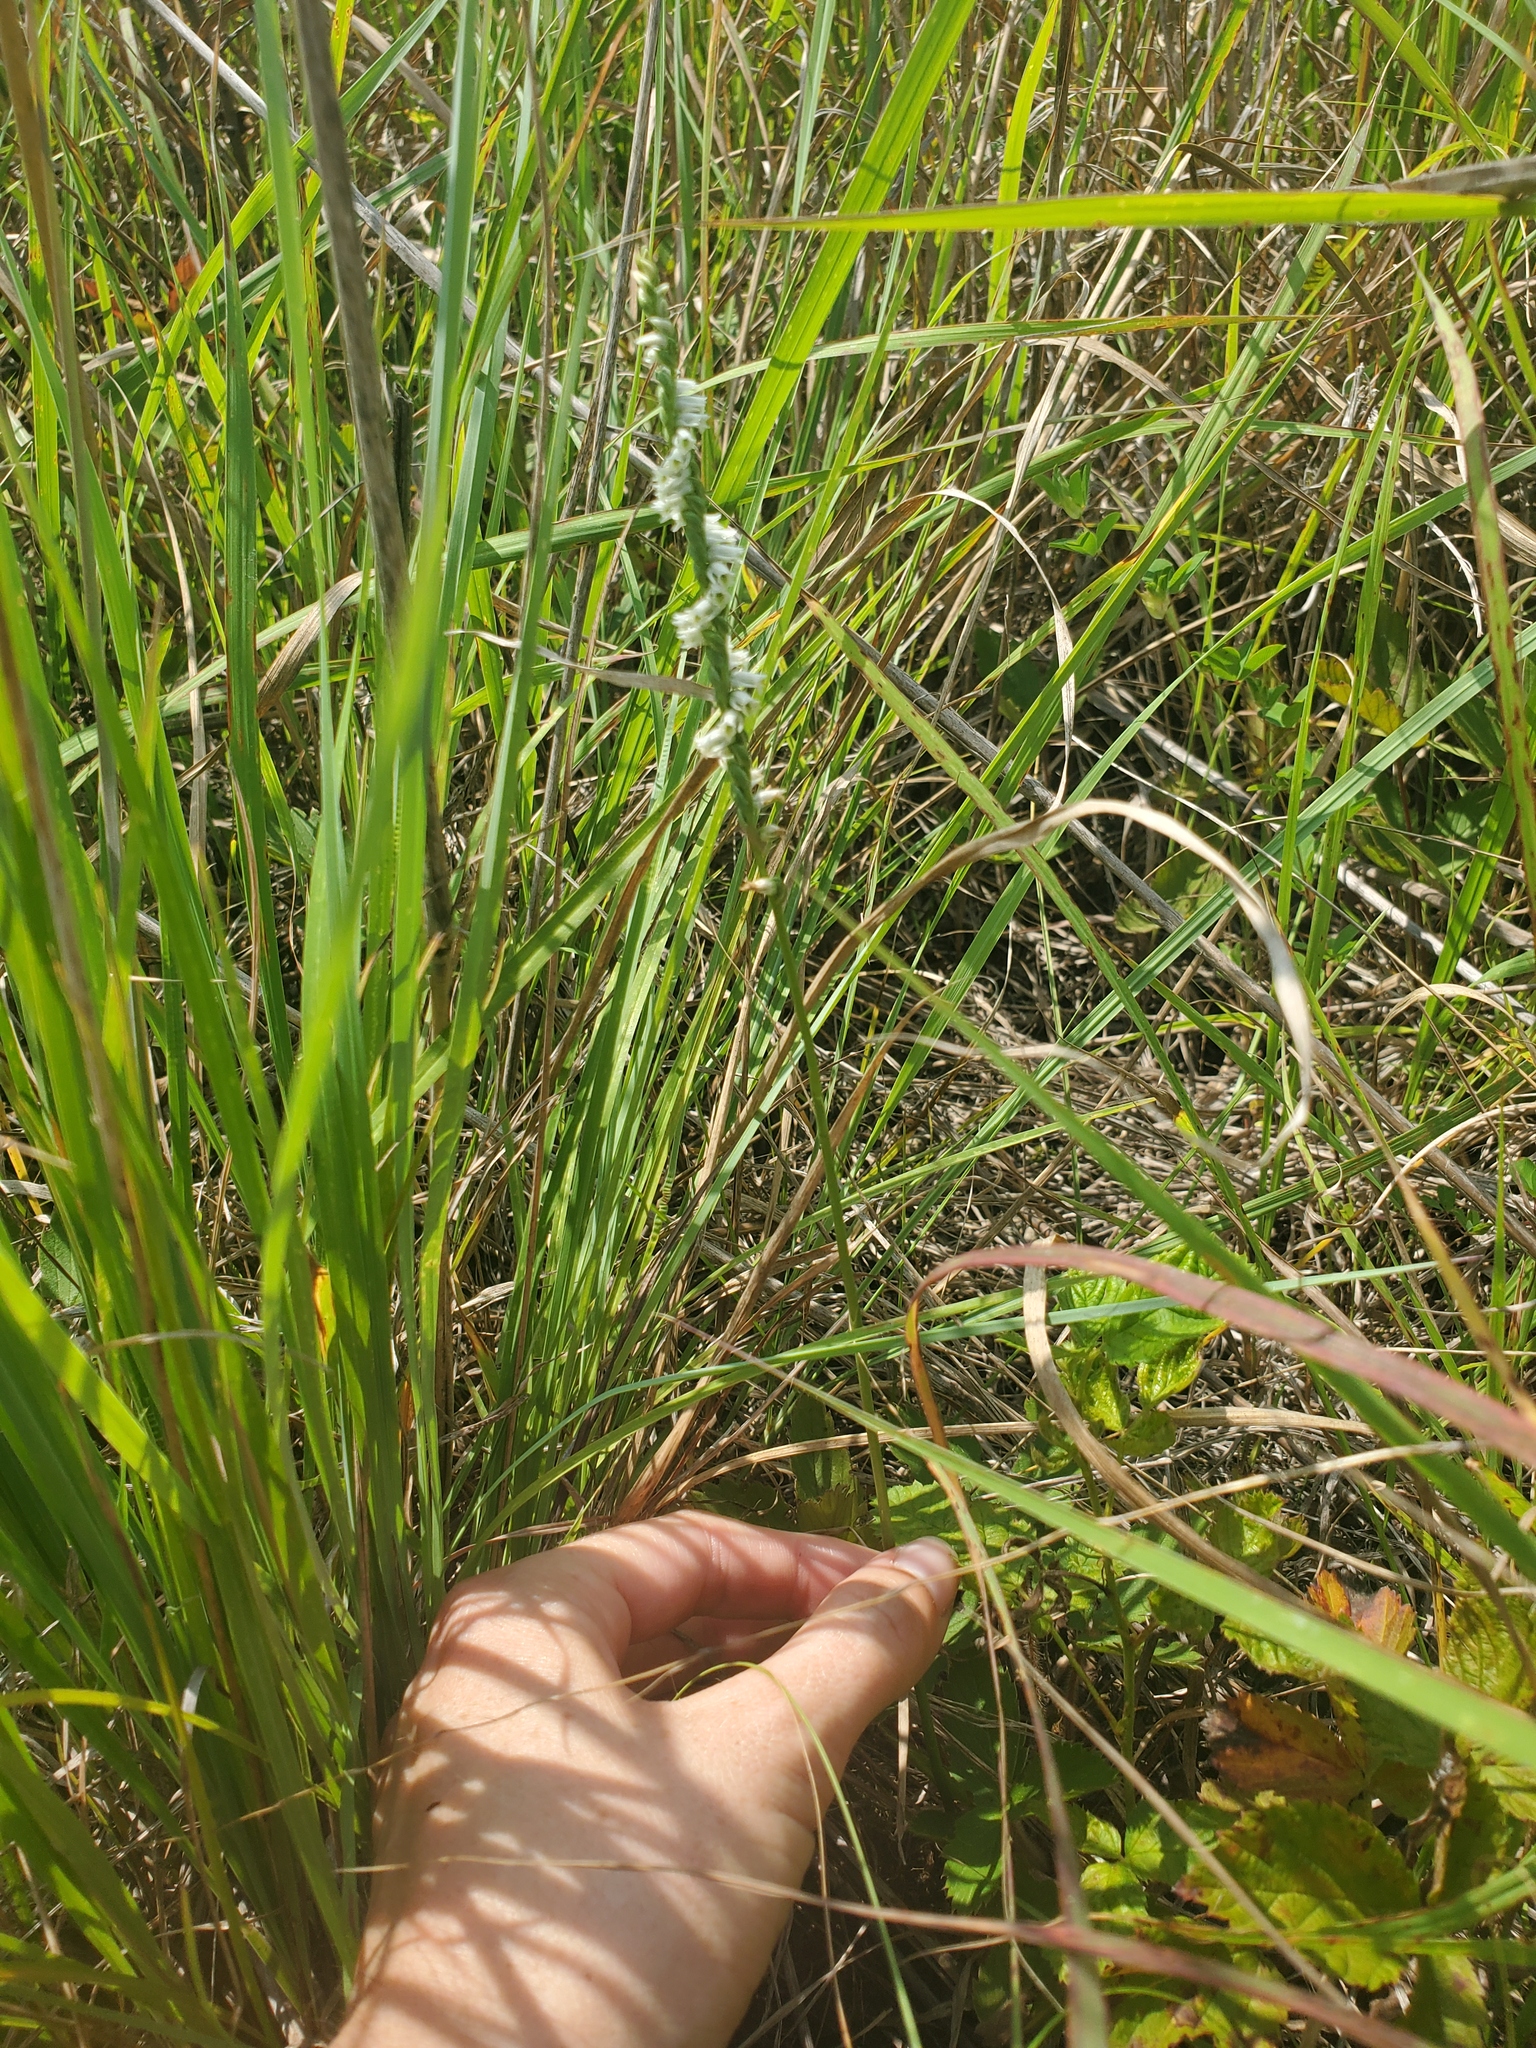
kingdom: Plantae
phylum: Tracheophyta
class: Liliopsida
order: Asparagales
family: Orchidaceae
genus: Spiranthes
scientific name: Spiranthes lacera
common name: Northern slender ladies'-tresses
